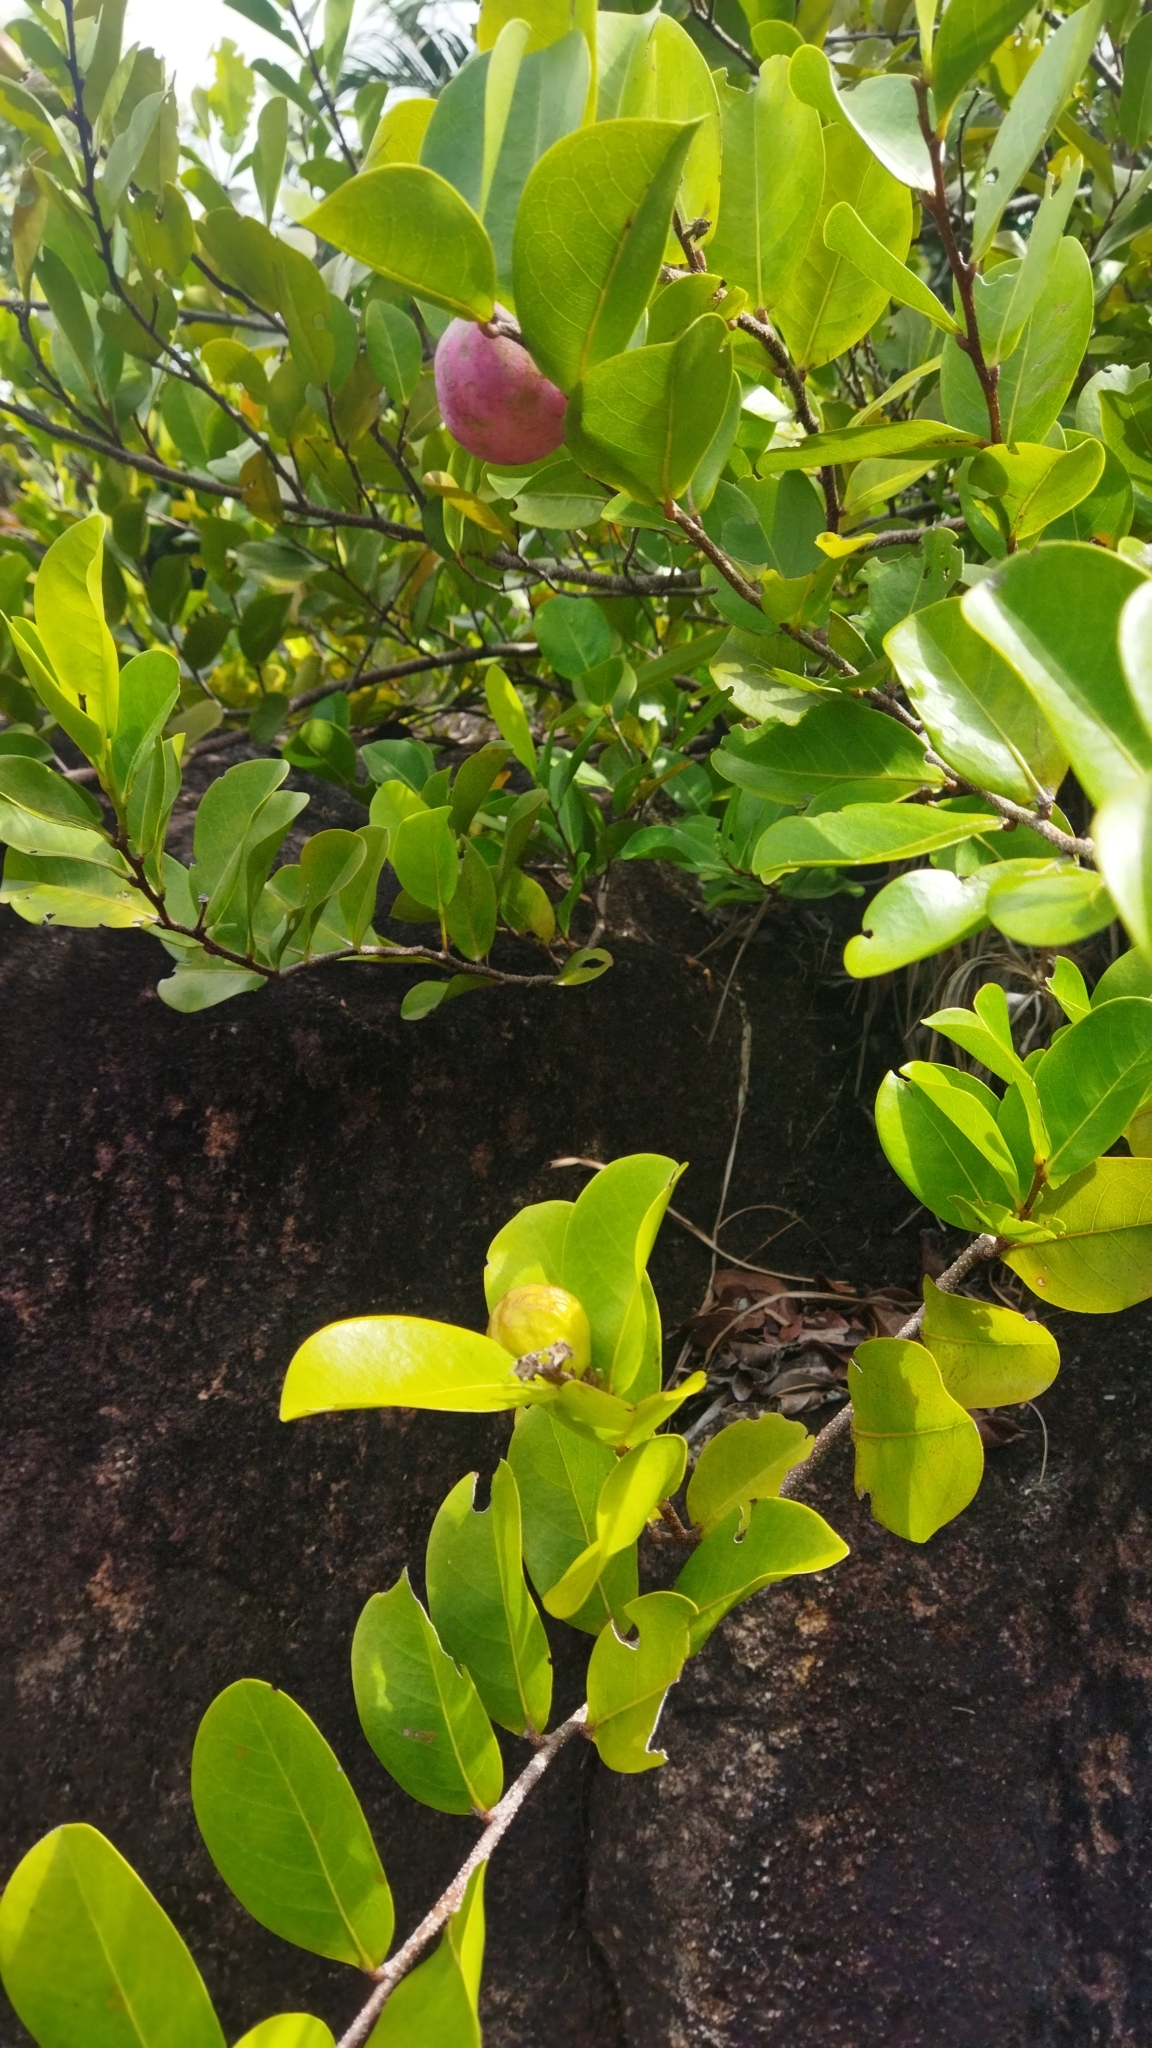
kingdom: Plantae
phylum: Tracheophyta
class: Magnoliopsida
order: Malpighiales
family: Chrysobalanaceae
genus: Chrysobalanus
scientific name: Chrysobalanus icaco
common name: Coco plum
